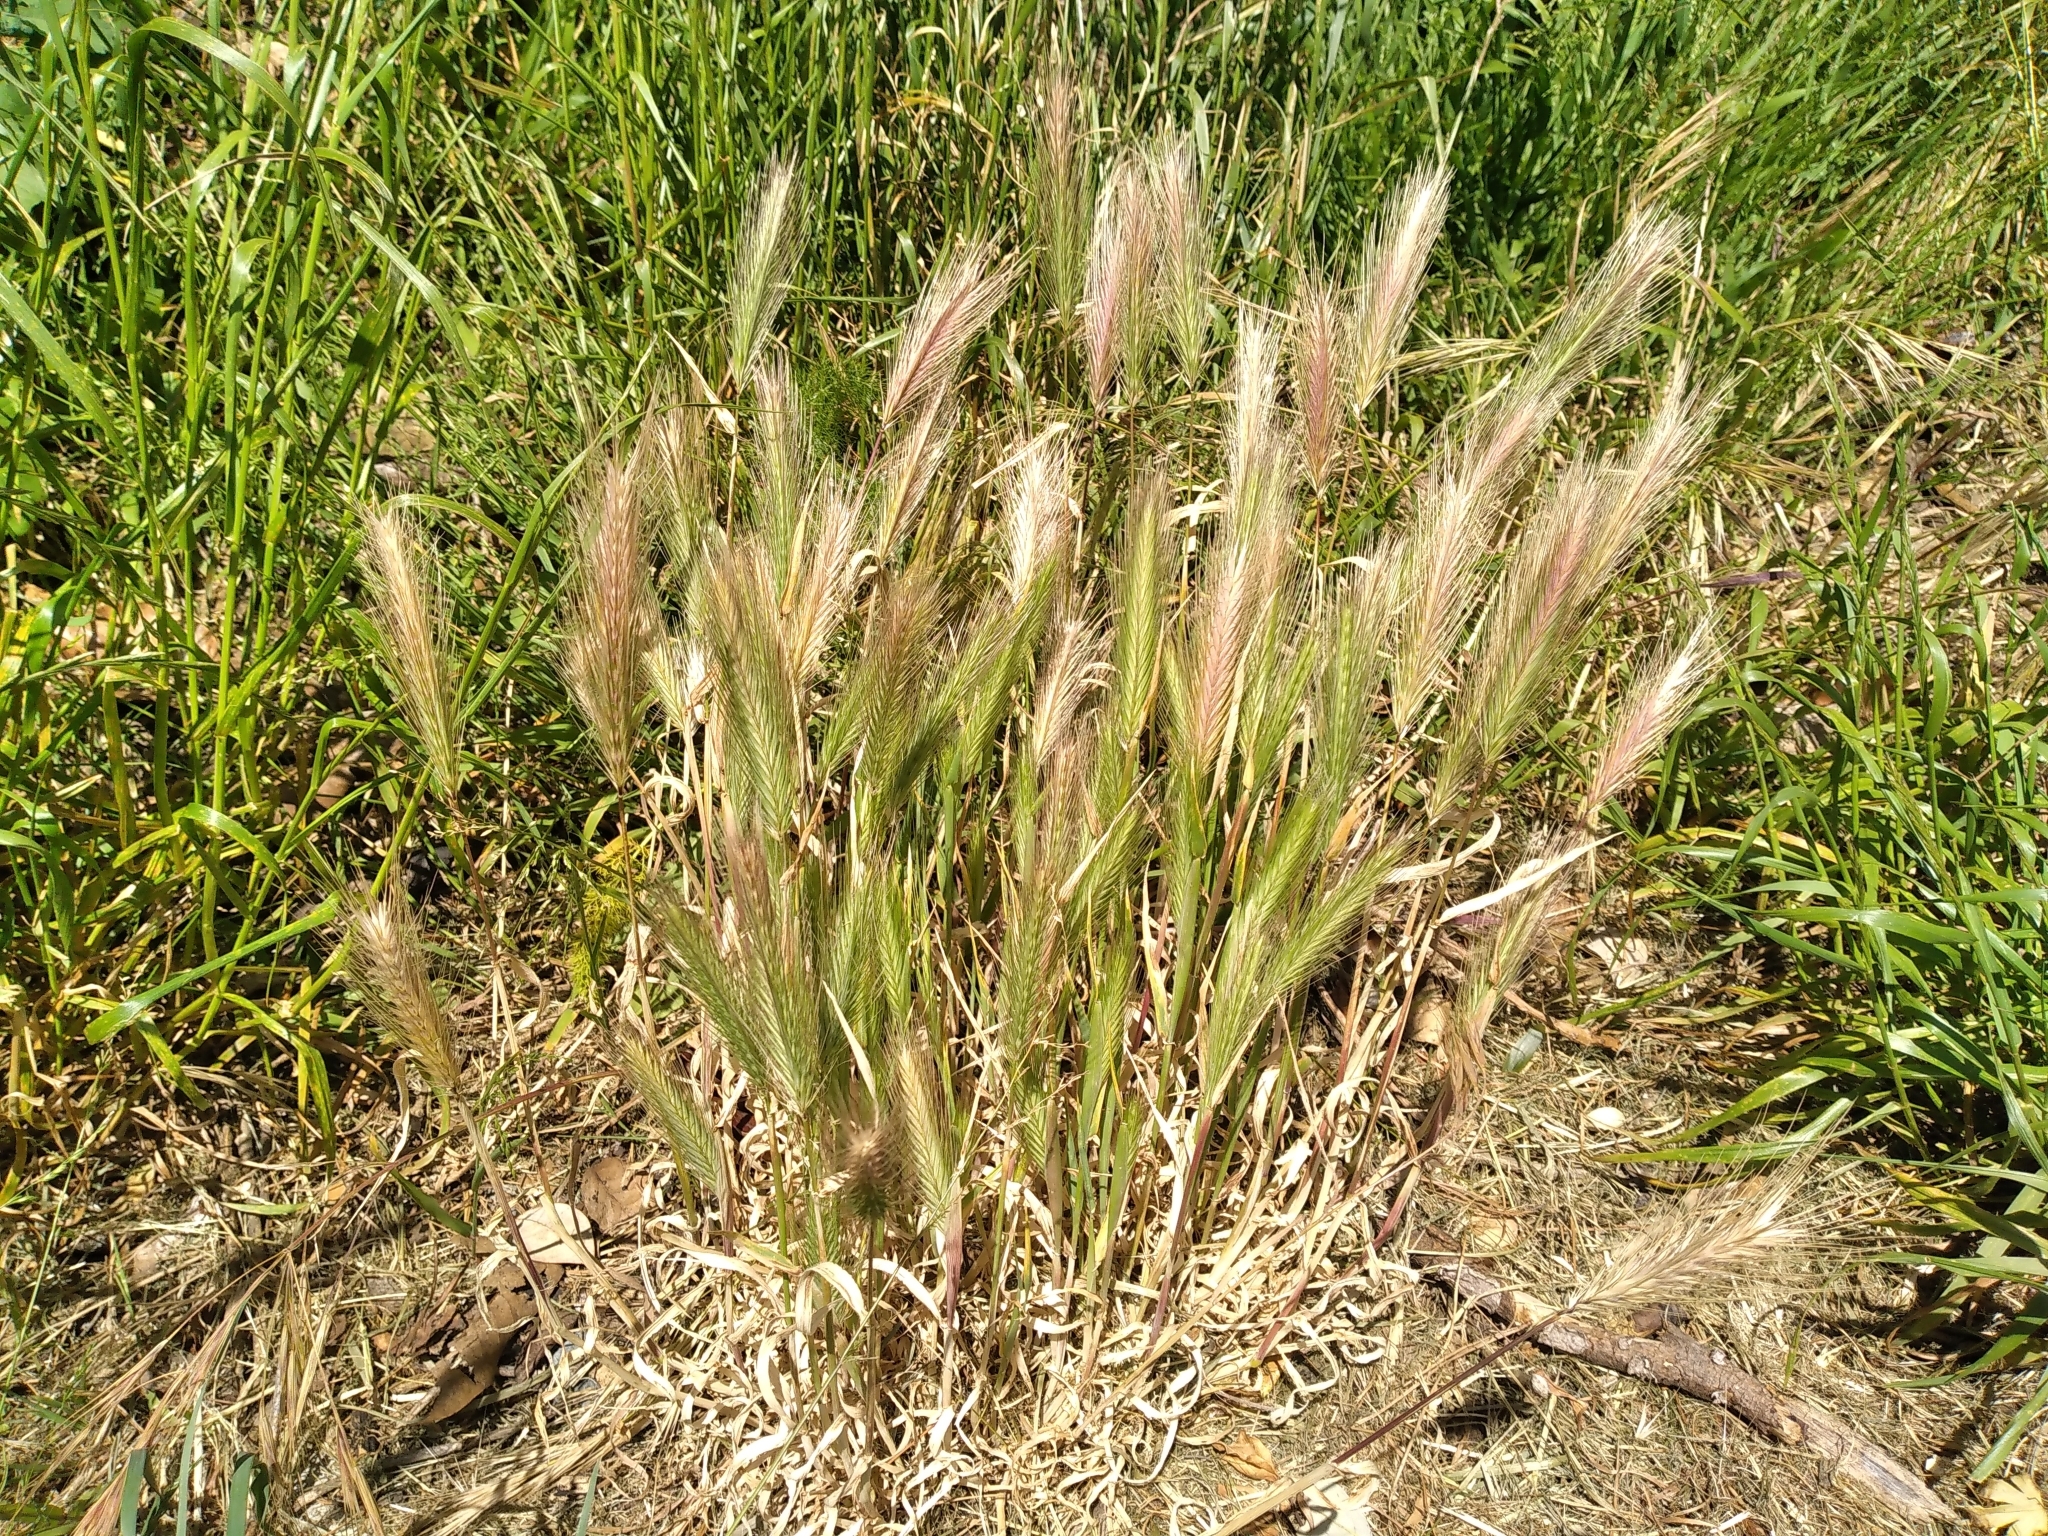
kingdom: Plantae
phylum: Tracheophyta
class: Liliopsida
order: Poales
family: Poaceae
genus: Hordeum
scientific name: Hordeum murinum
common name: Wall barley
